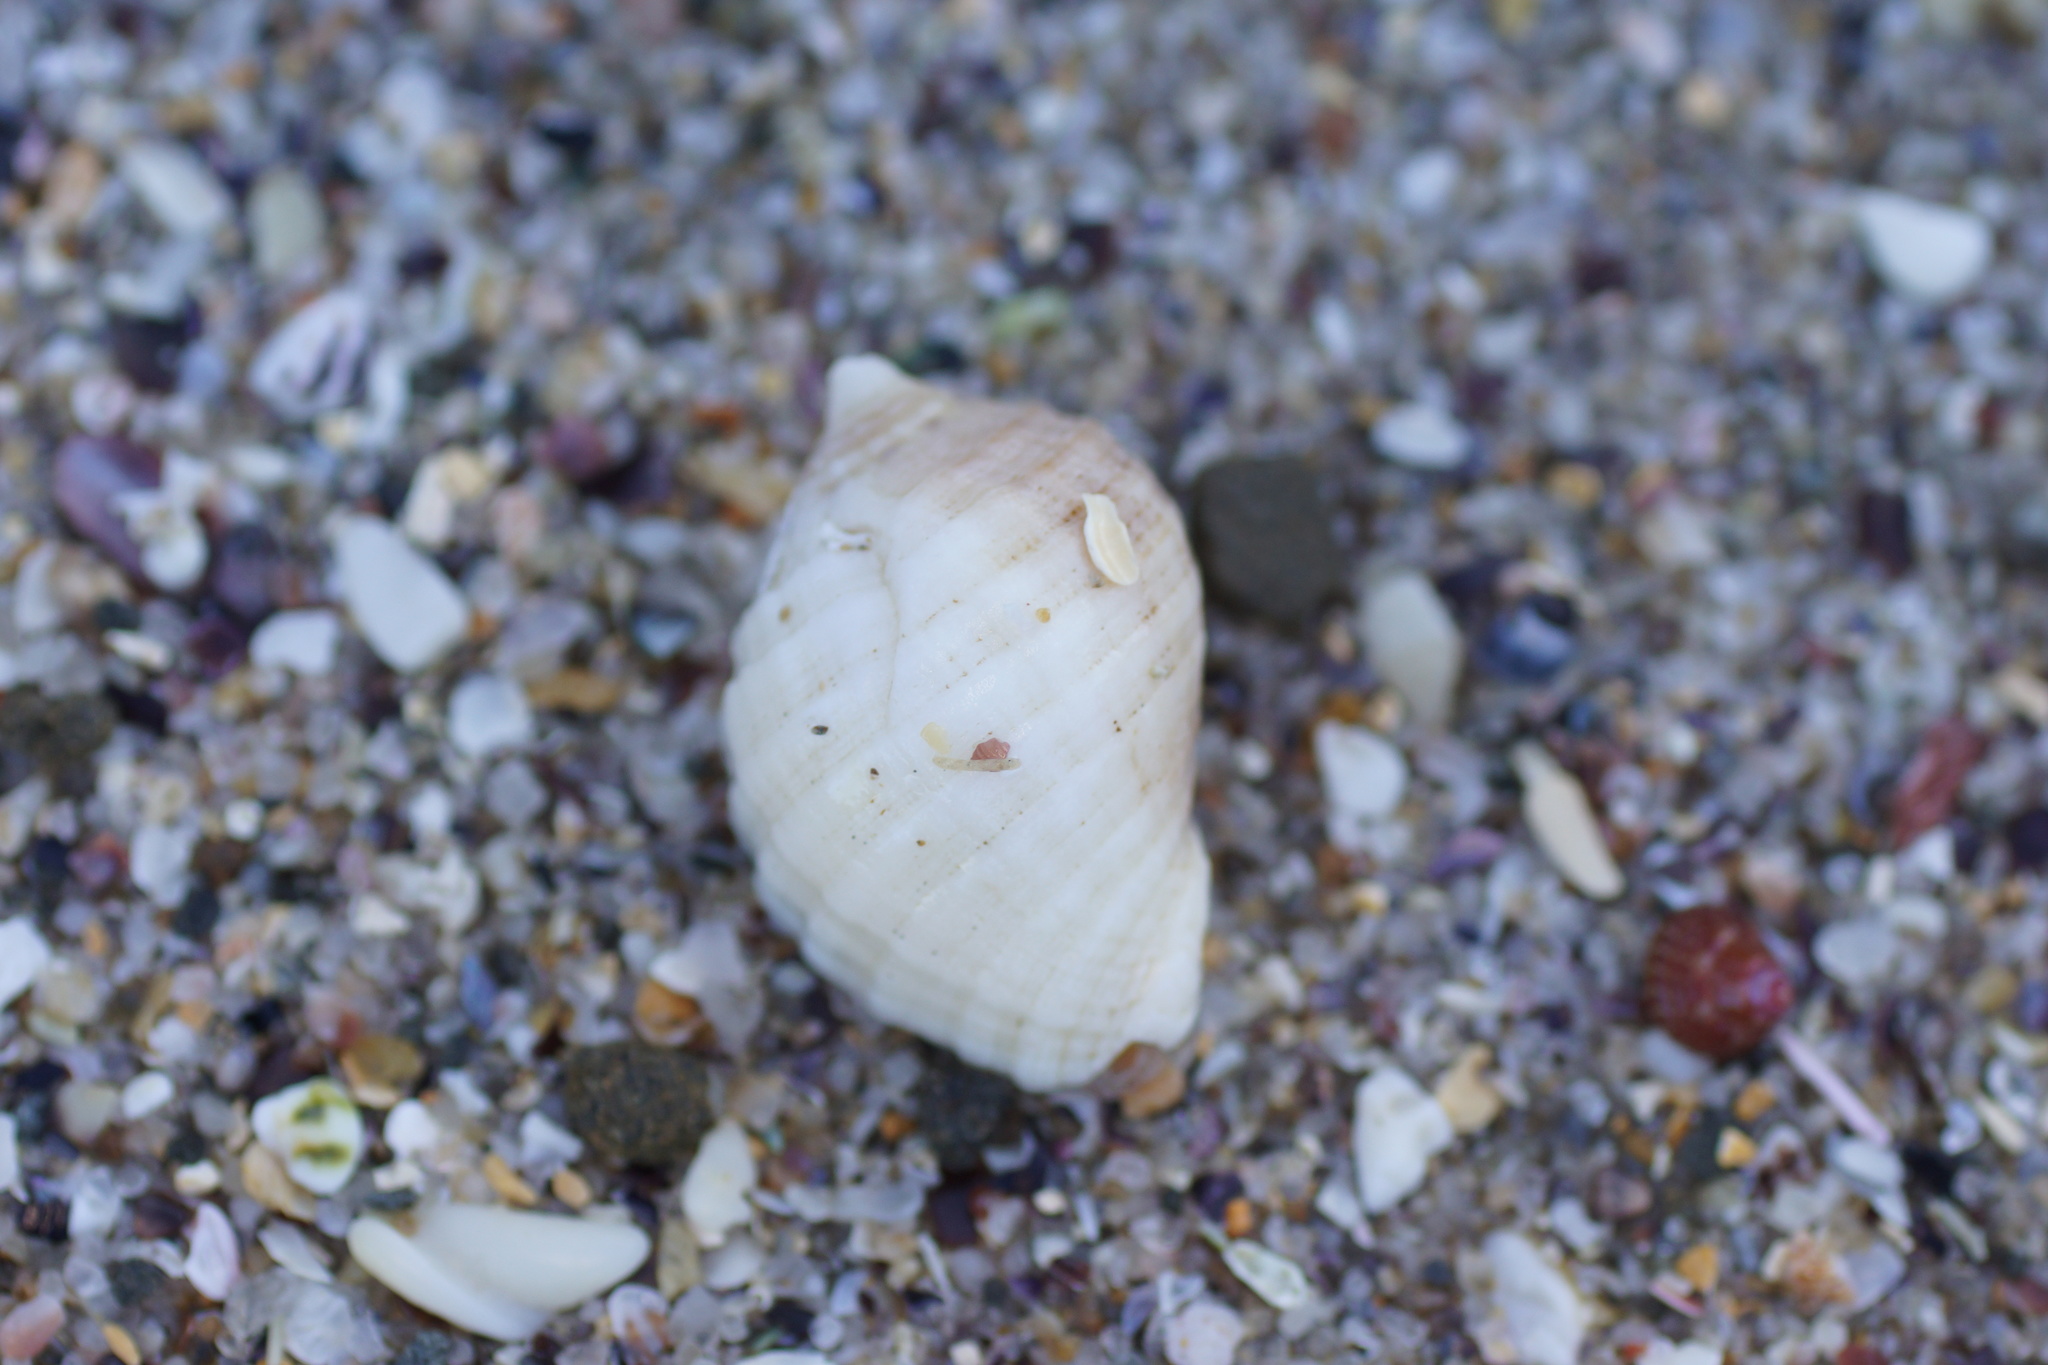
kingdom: Animalia
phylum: Mollusca
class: Gastropoda
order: Neogastropoda
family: Muricidae
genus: Dicathais
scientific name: Dicathais orbita
